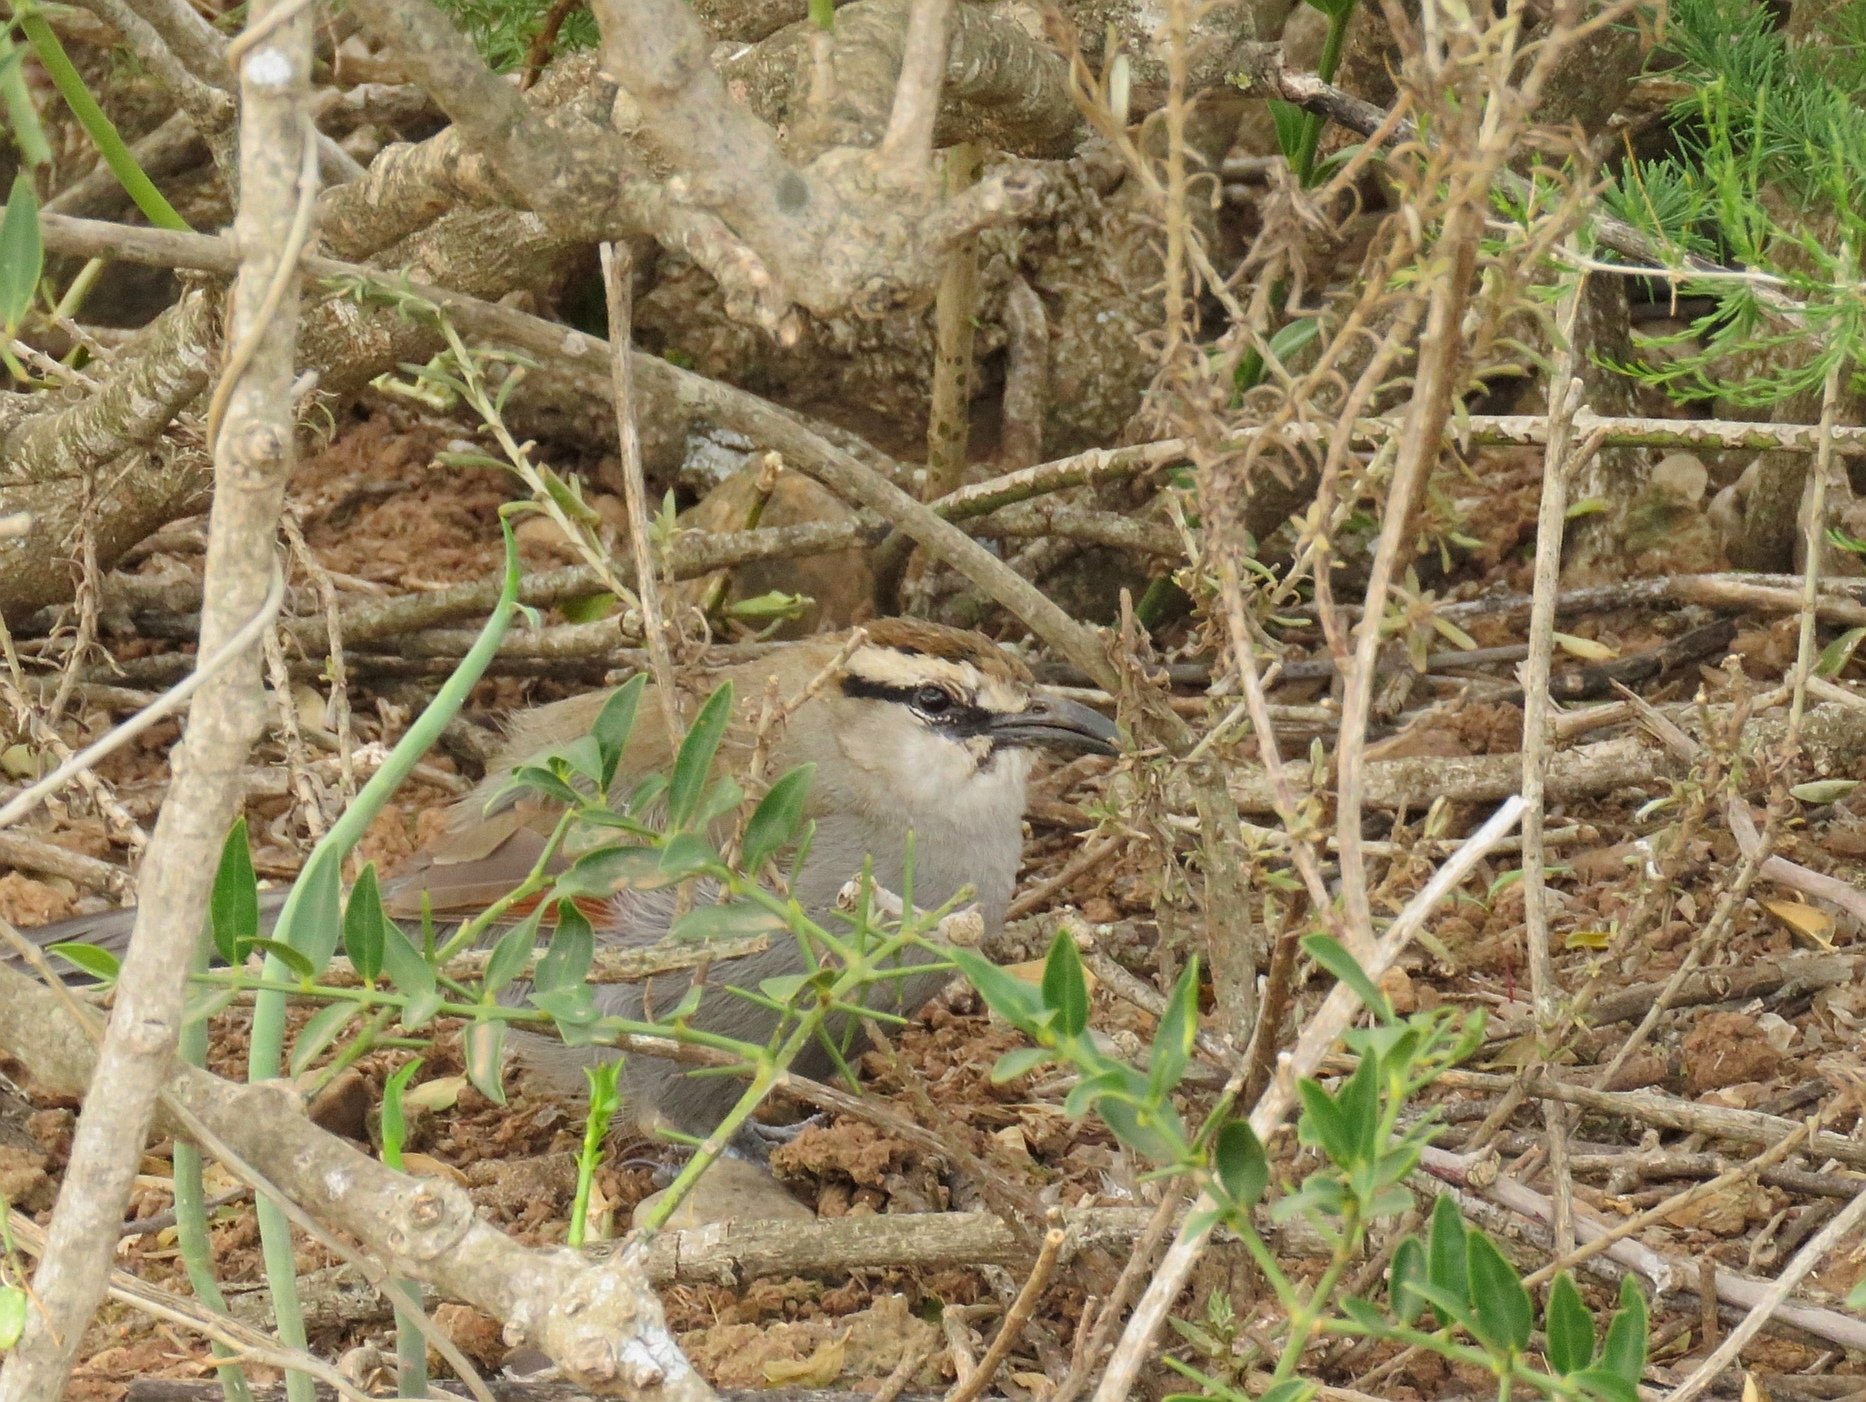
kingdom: Animalia
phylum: Chordata
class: Aves
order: Passeriformes
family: Malaconotidae
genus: Tchagra
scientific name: Tchagra tchagra
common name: Southern tchagra
